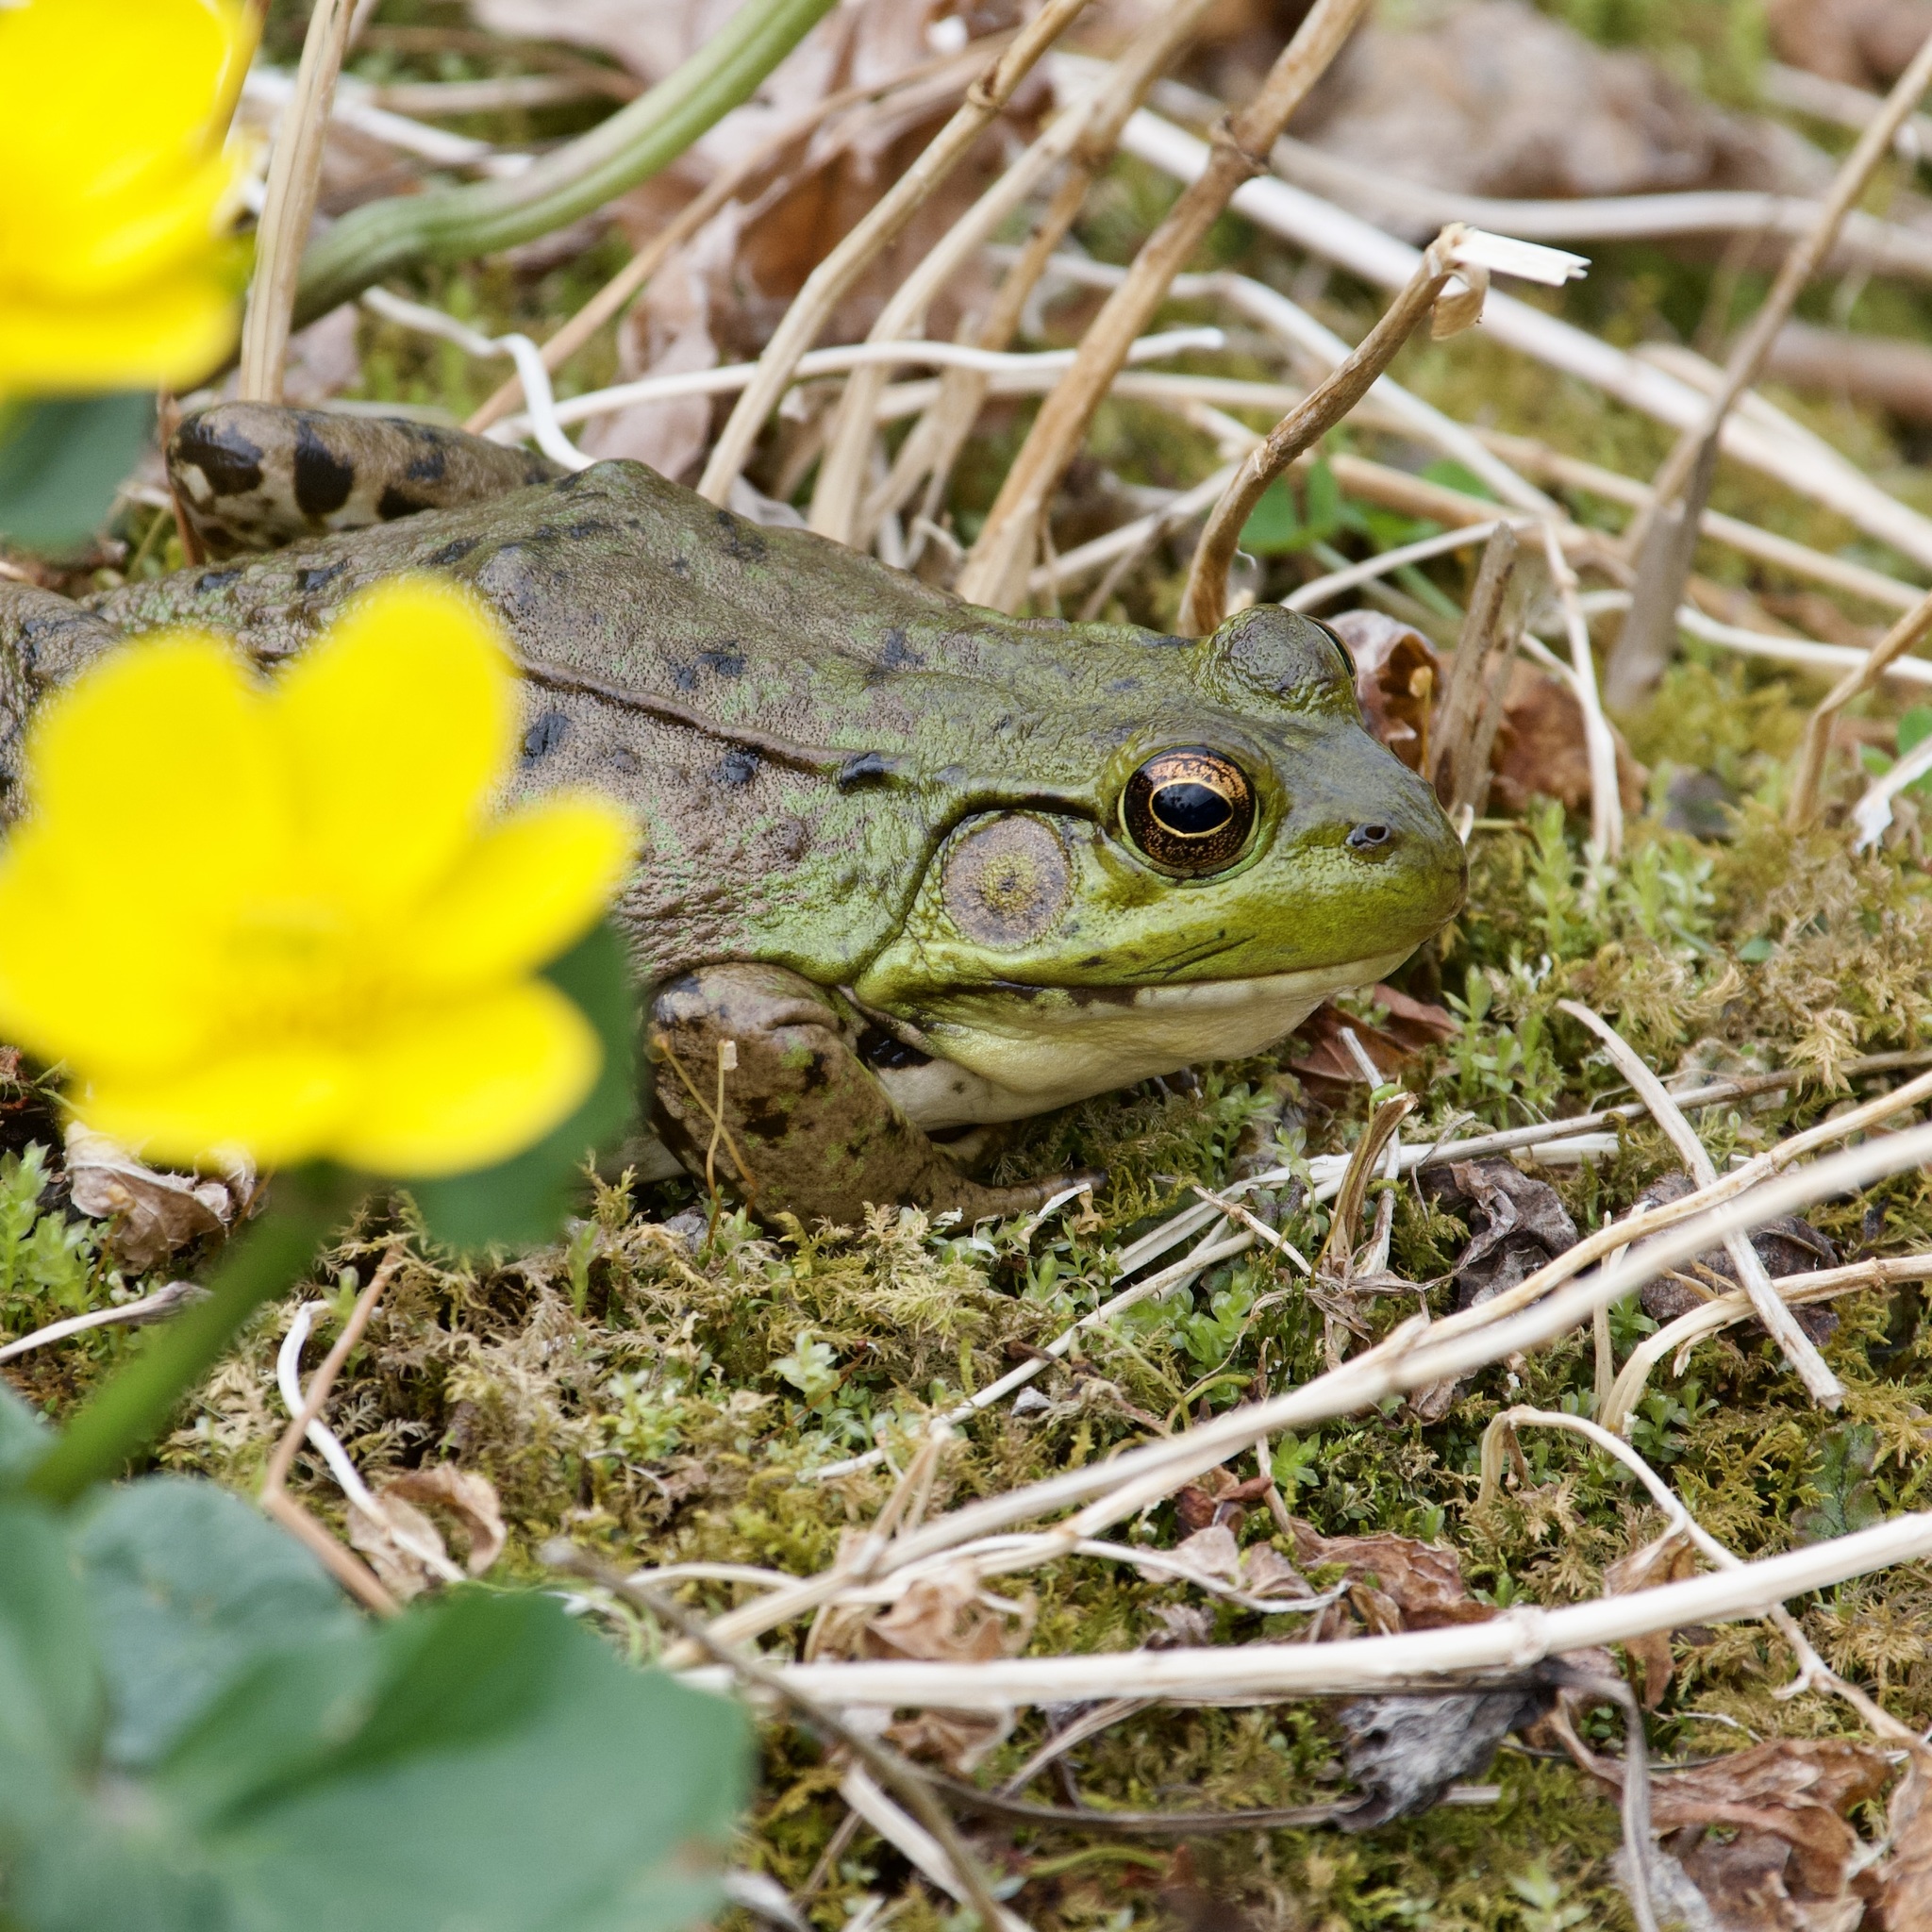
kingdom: Animalia
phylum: Chordata
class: Amphibia
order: Anura
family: Ranidae
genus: Lithobates
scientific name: Lithobates clamitans
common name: Green frog
